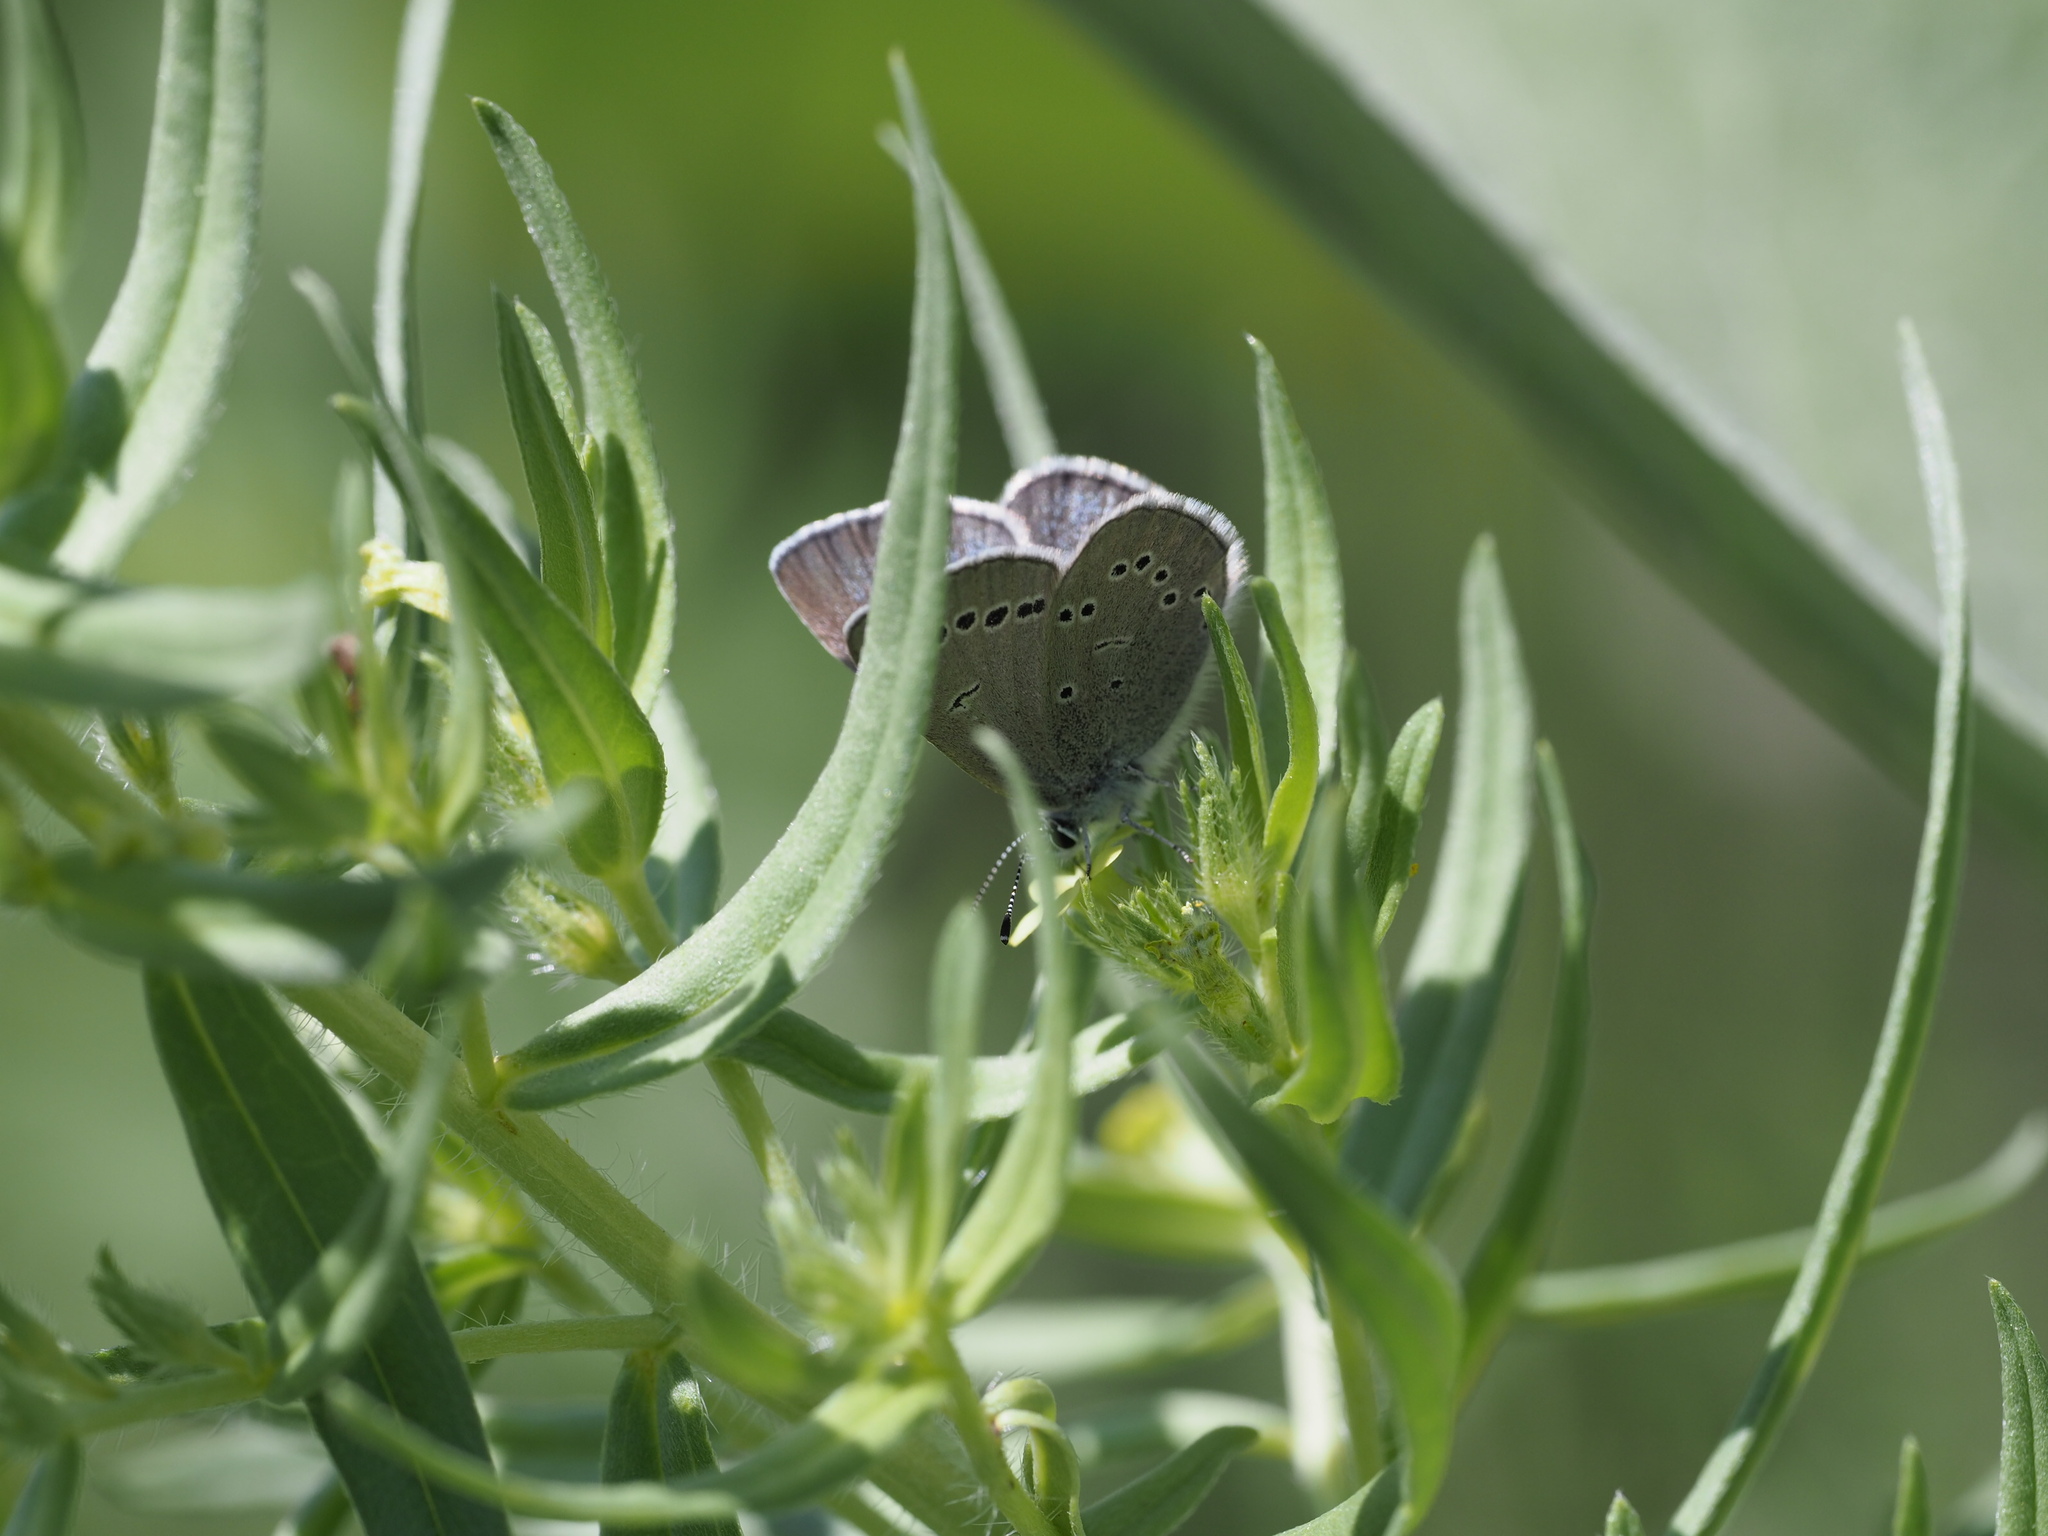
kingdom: Animalia
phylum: Arthropoda
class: Insecta
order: Lepidoptera
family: Lycaenidae
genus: Glaucopsyche
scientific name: Glaucopsyche lygdamus
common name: Silvery blue
